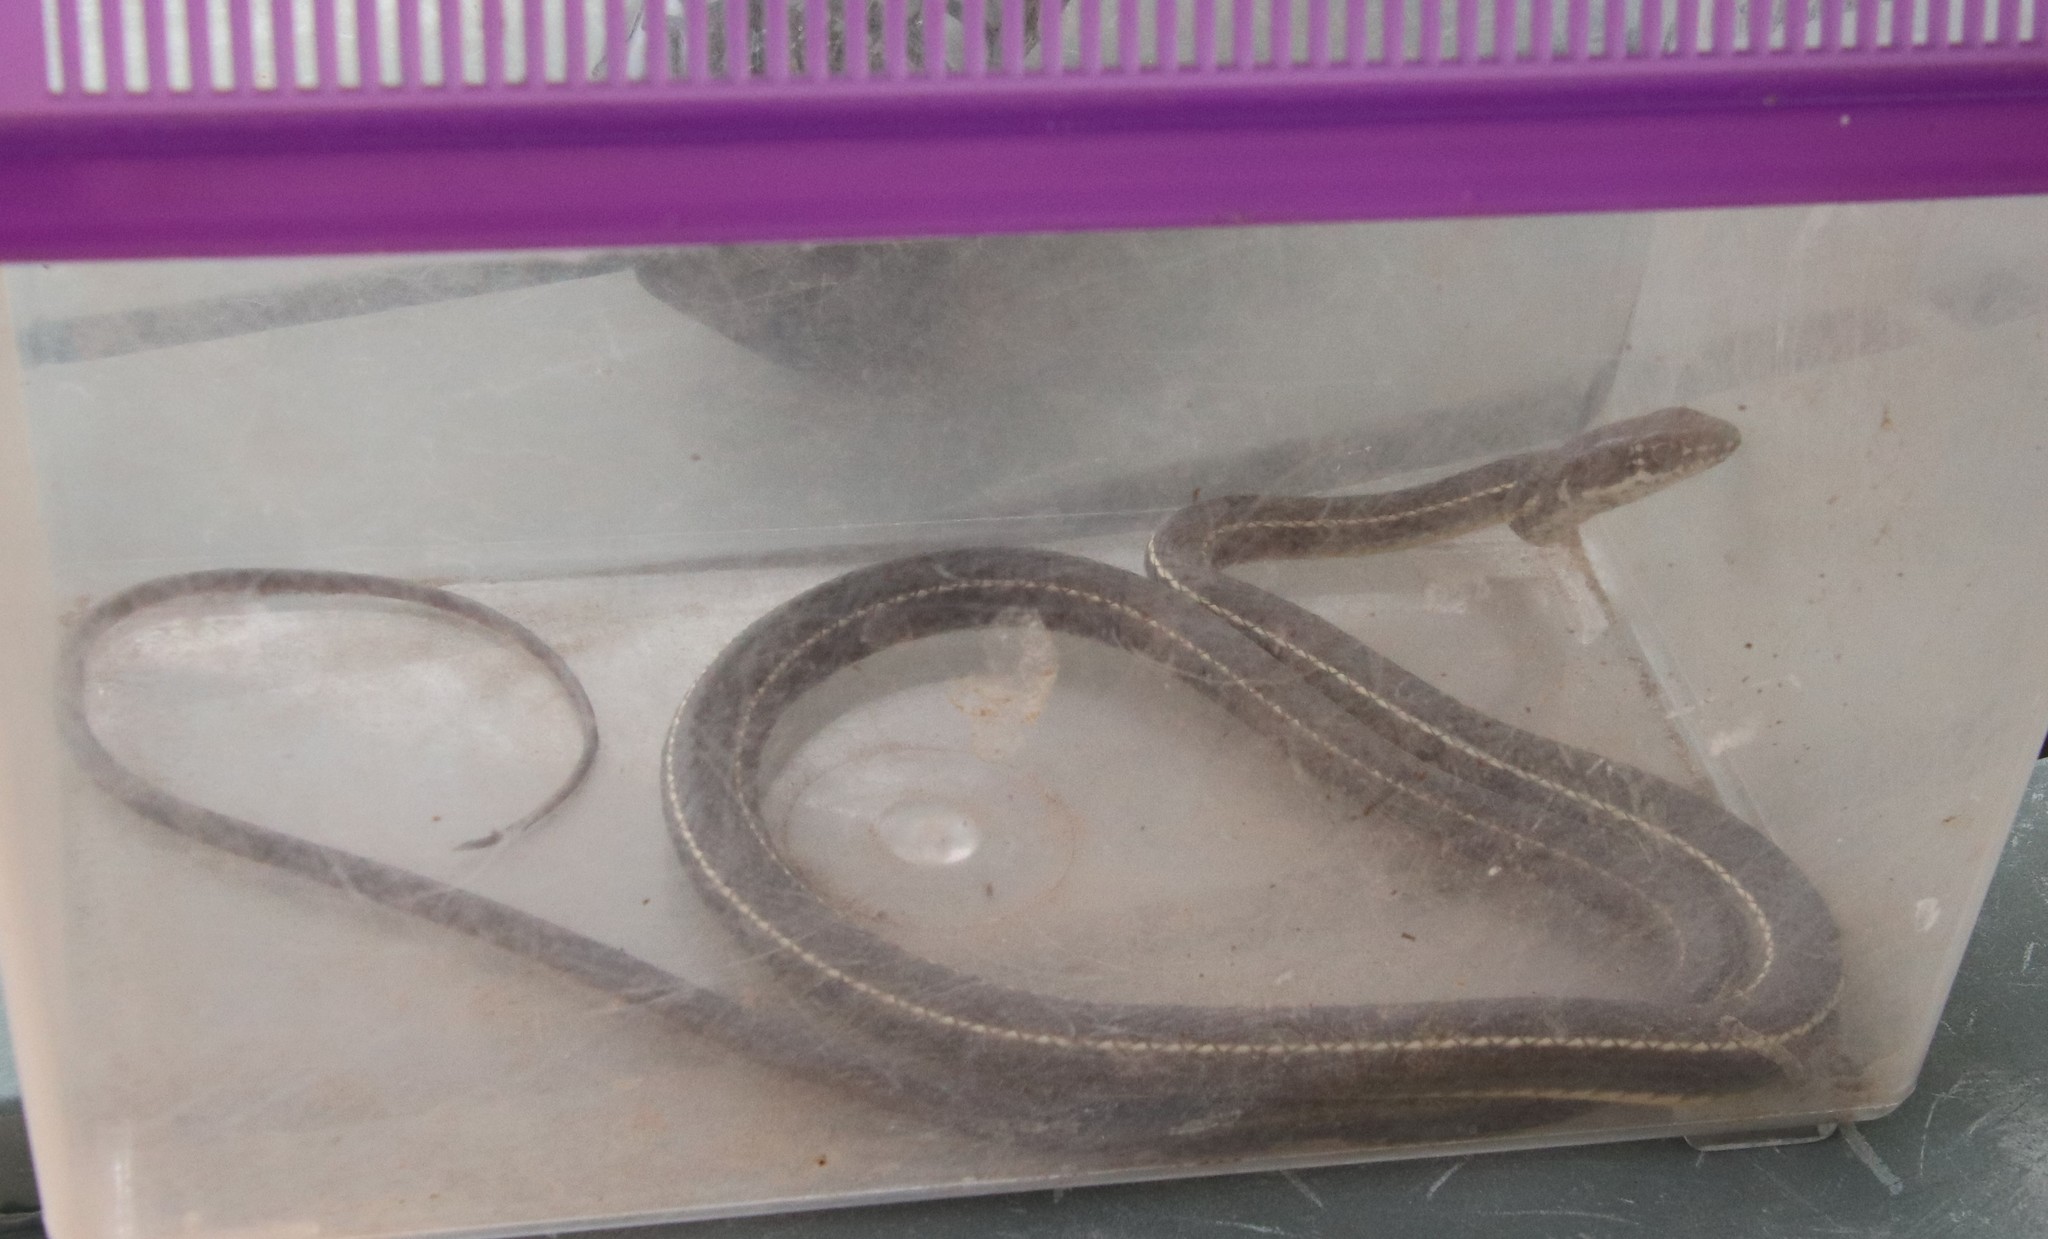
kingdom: Animalia
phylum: Chordata
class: Squamata
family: Colubridae
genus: Masticophis
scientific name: Masticophis lateralis
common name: Striped racer
